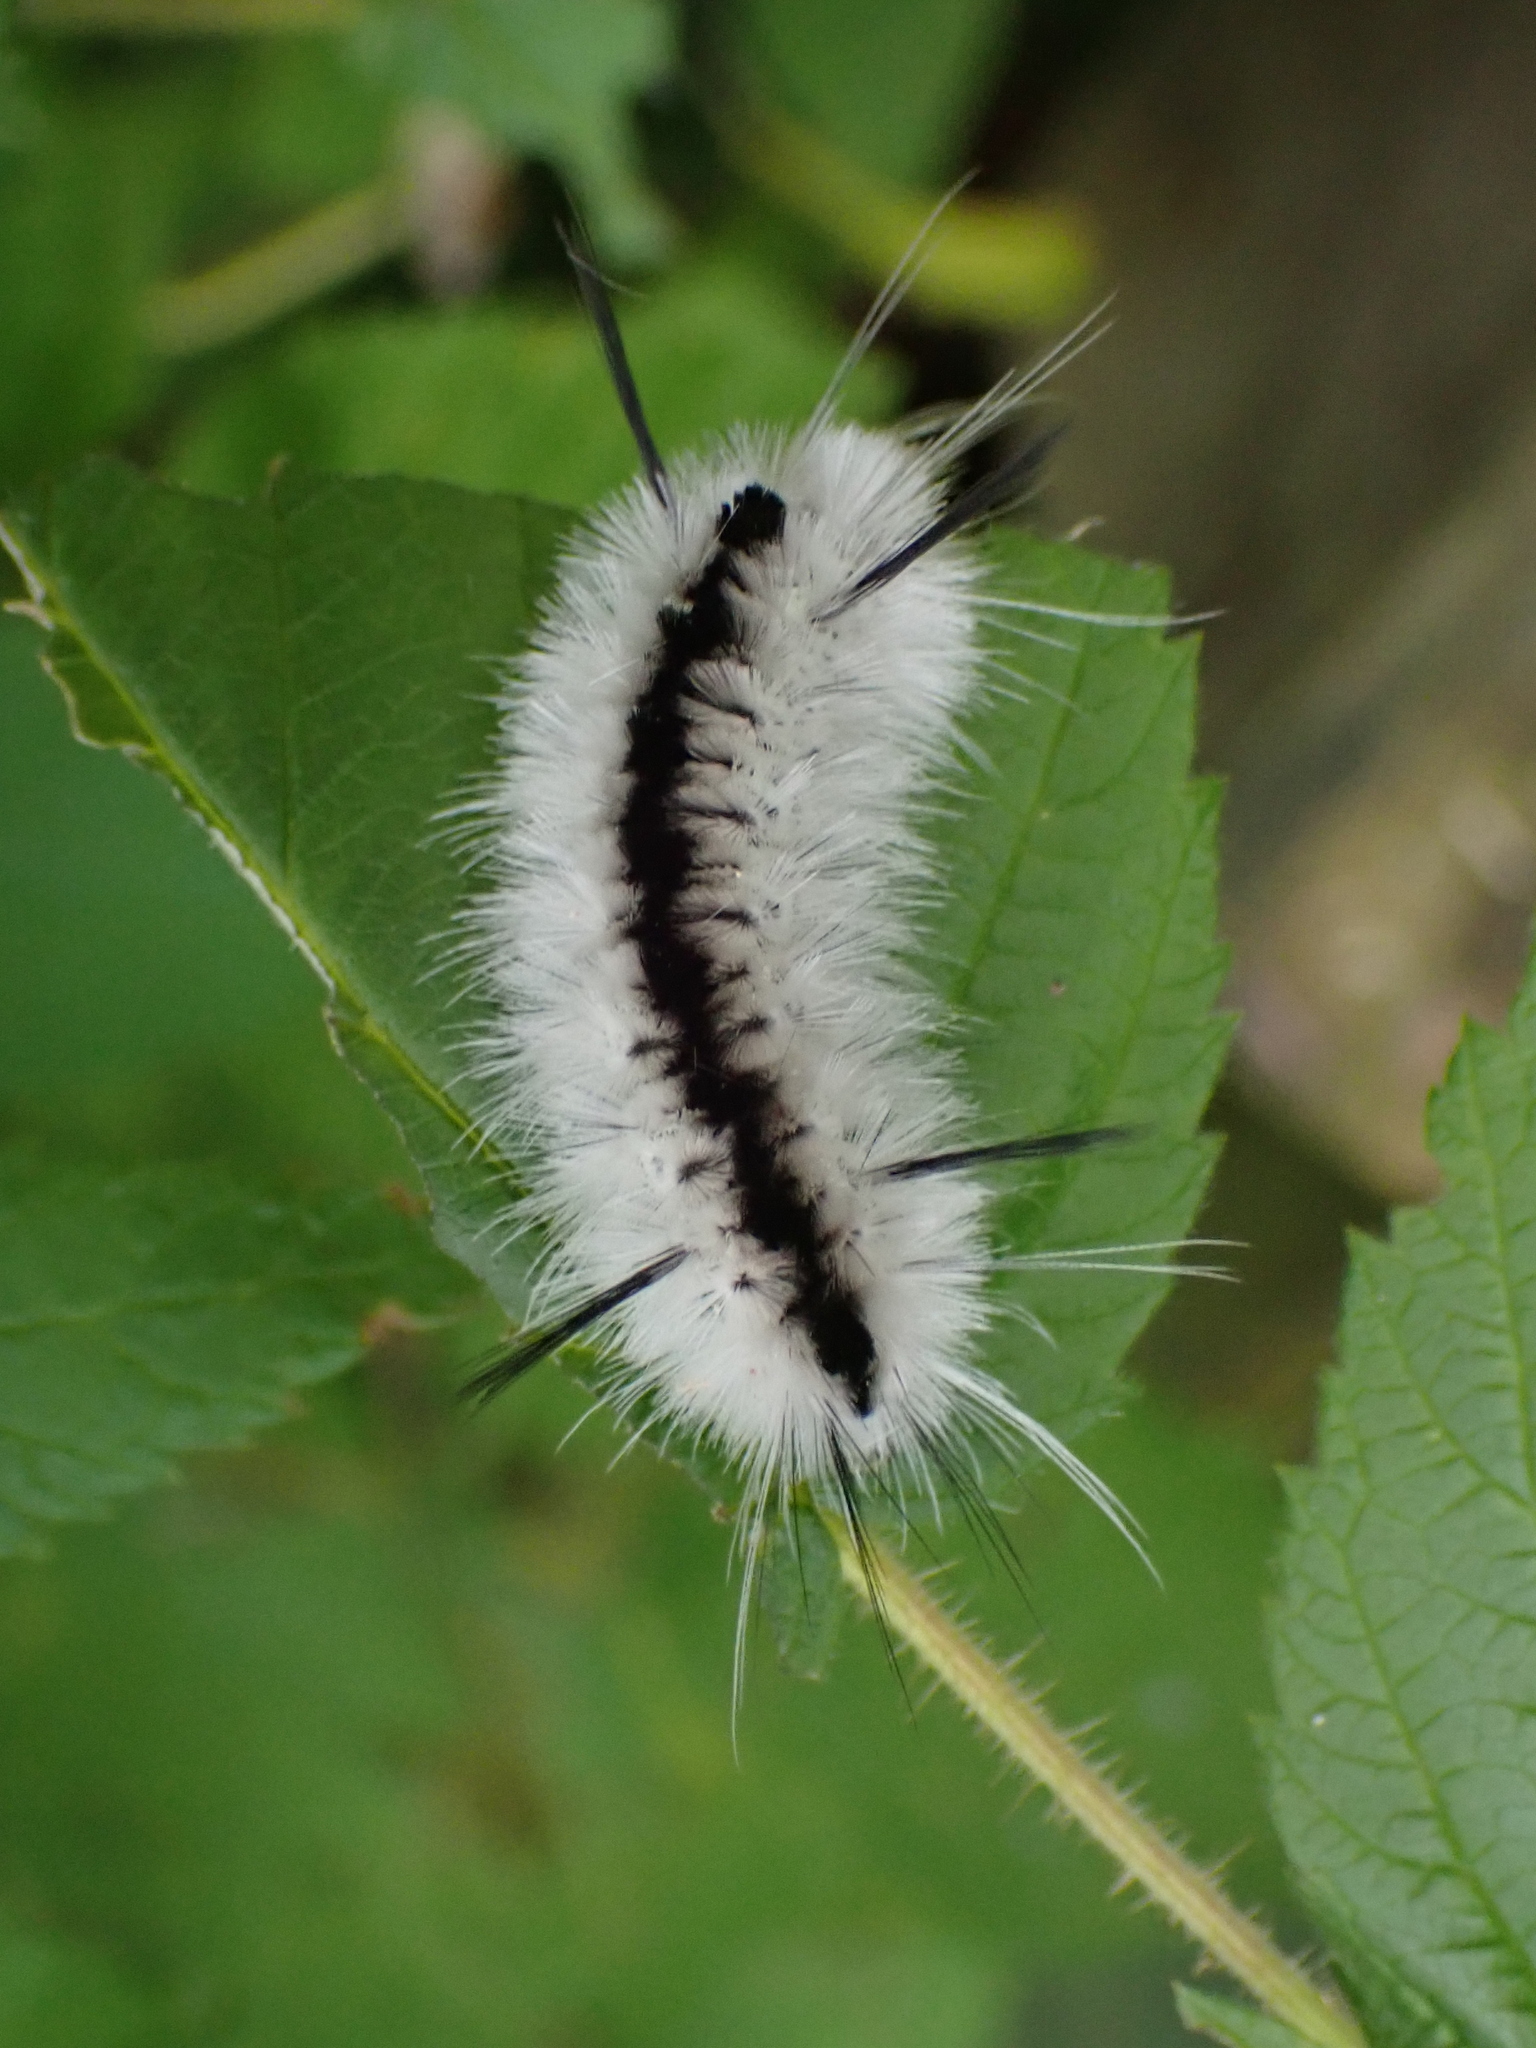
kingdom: Animalia
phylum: Arthropoda
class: Insecta
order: Lepidoptera
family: Erebidae
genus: Lophocampa
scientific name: Lophocampa caryae
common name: Hickory tussock moth
